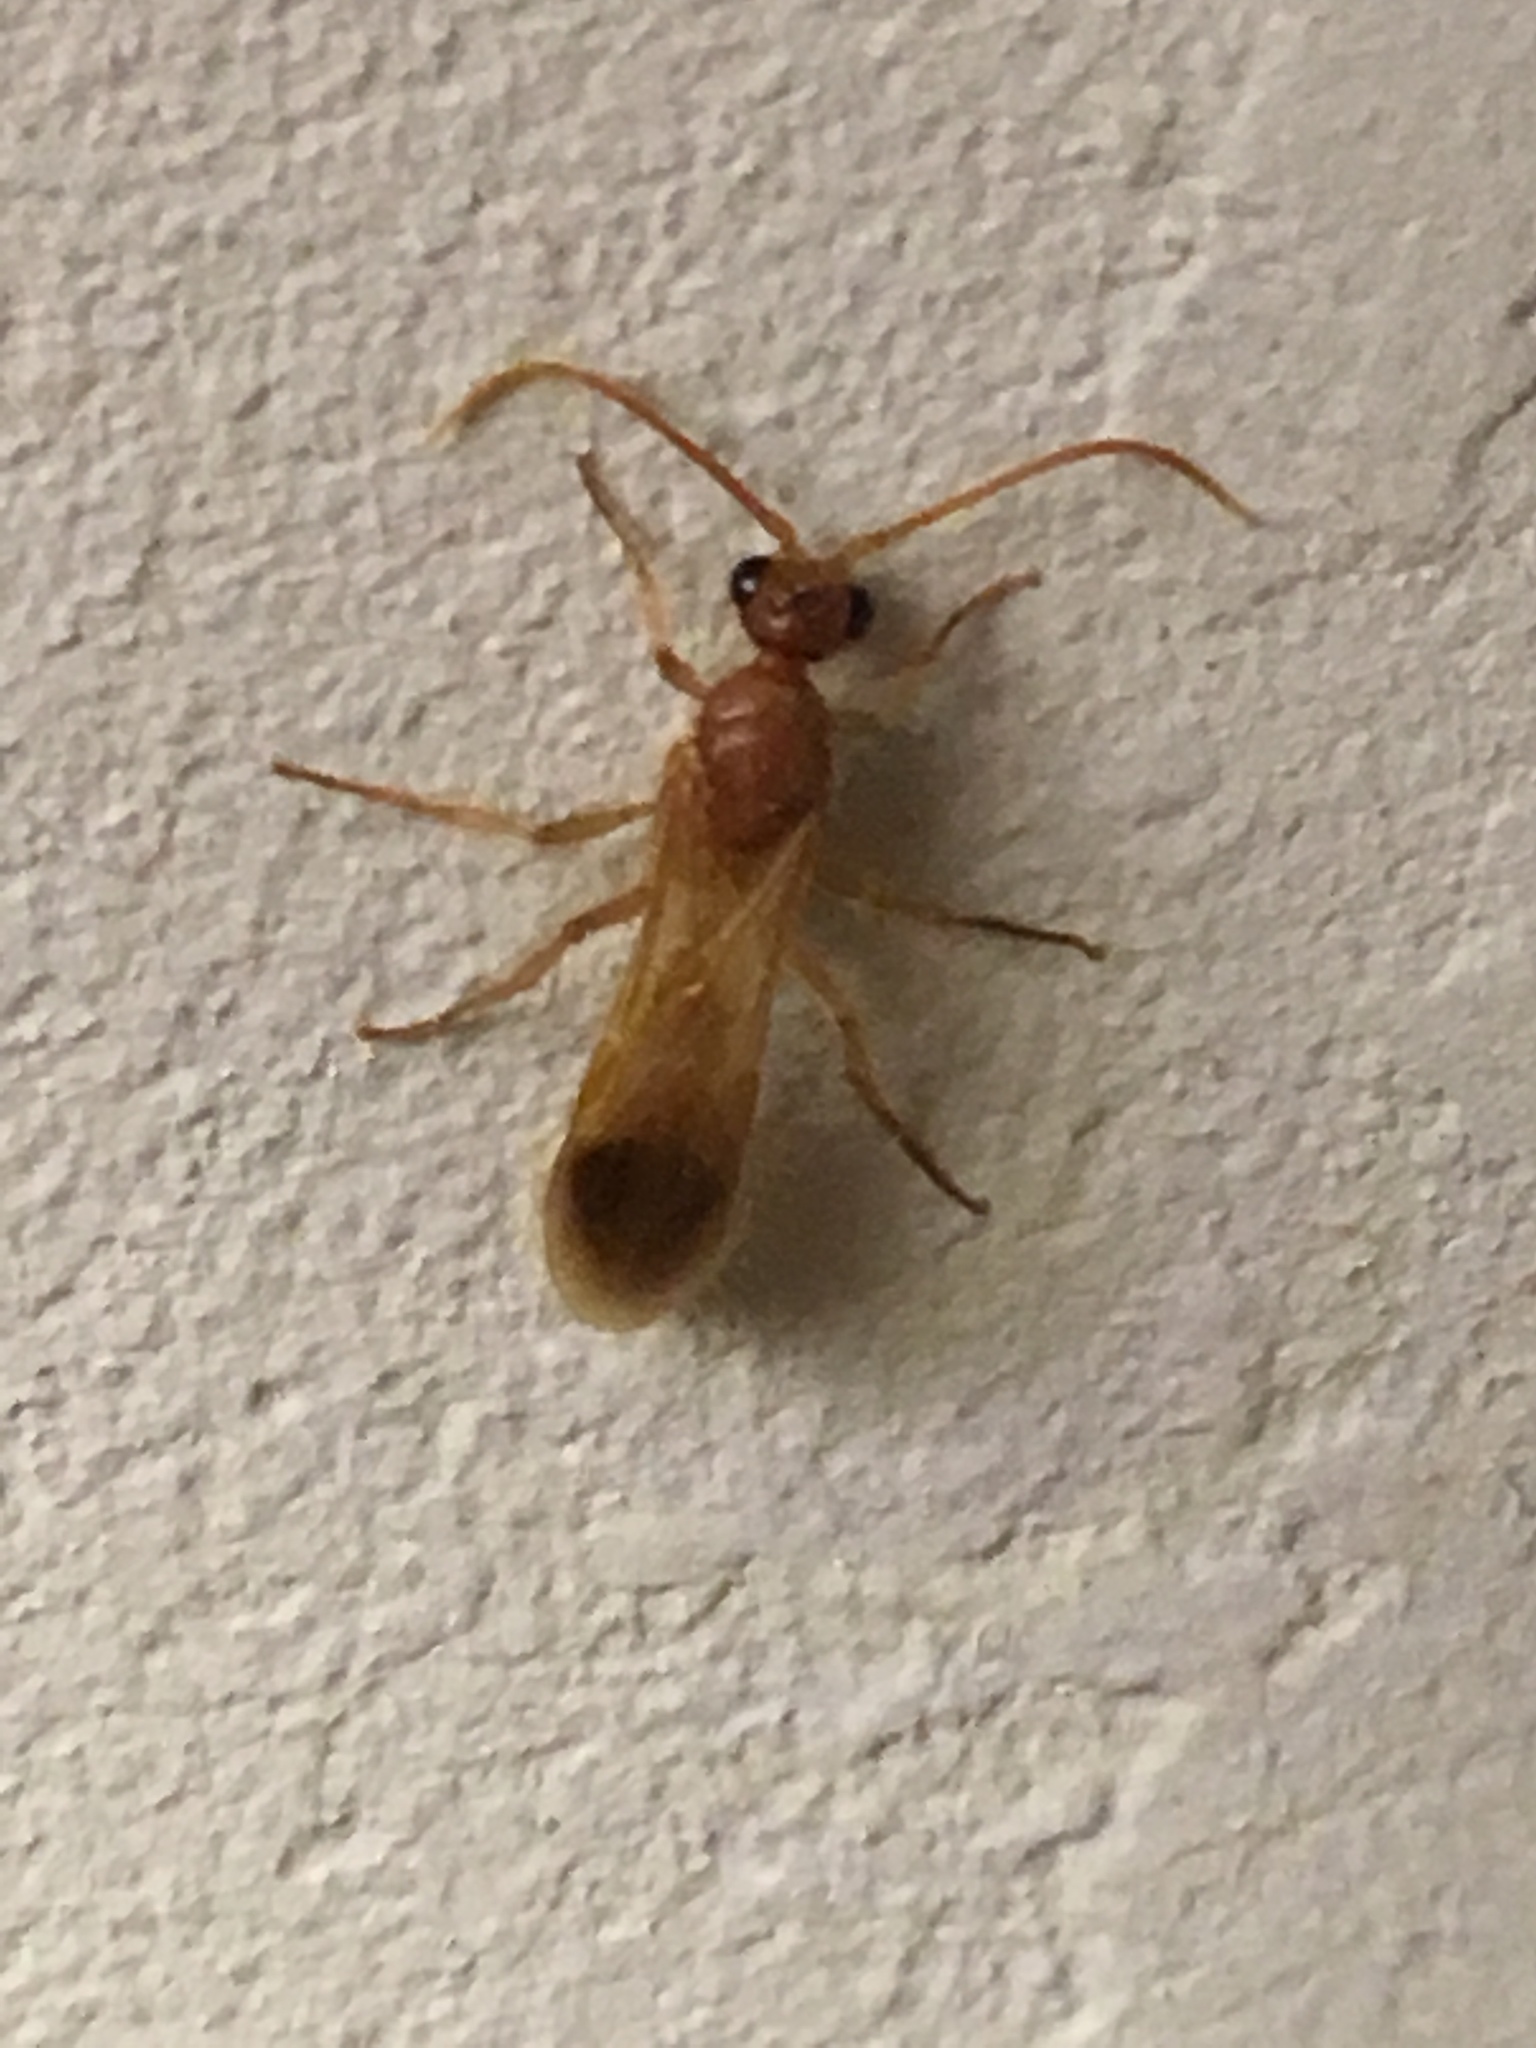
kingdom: Animalia
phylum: Arthropoda
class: Insecta
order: Hymenoptera
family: Chyphotidae
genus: Chyphotes
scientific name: Chyphotes
